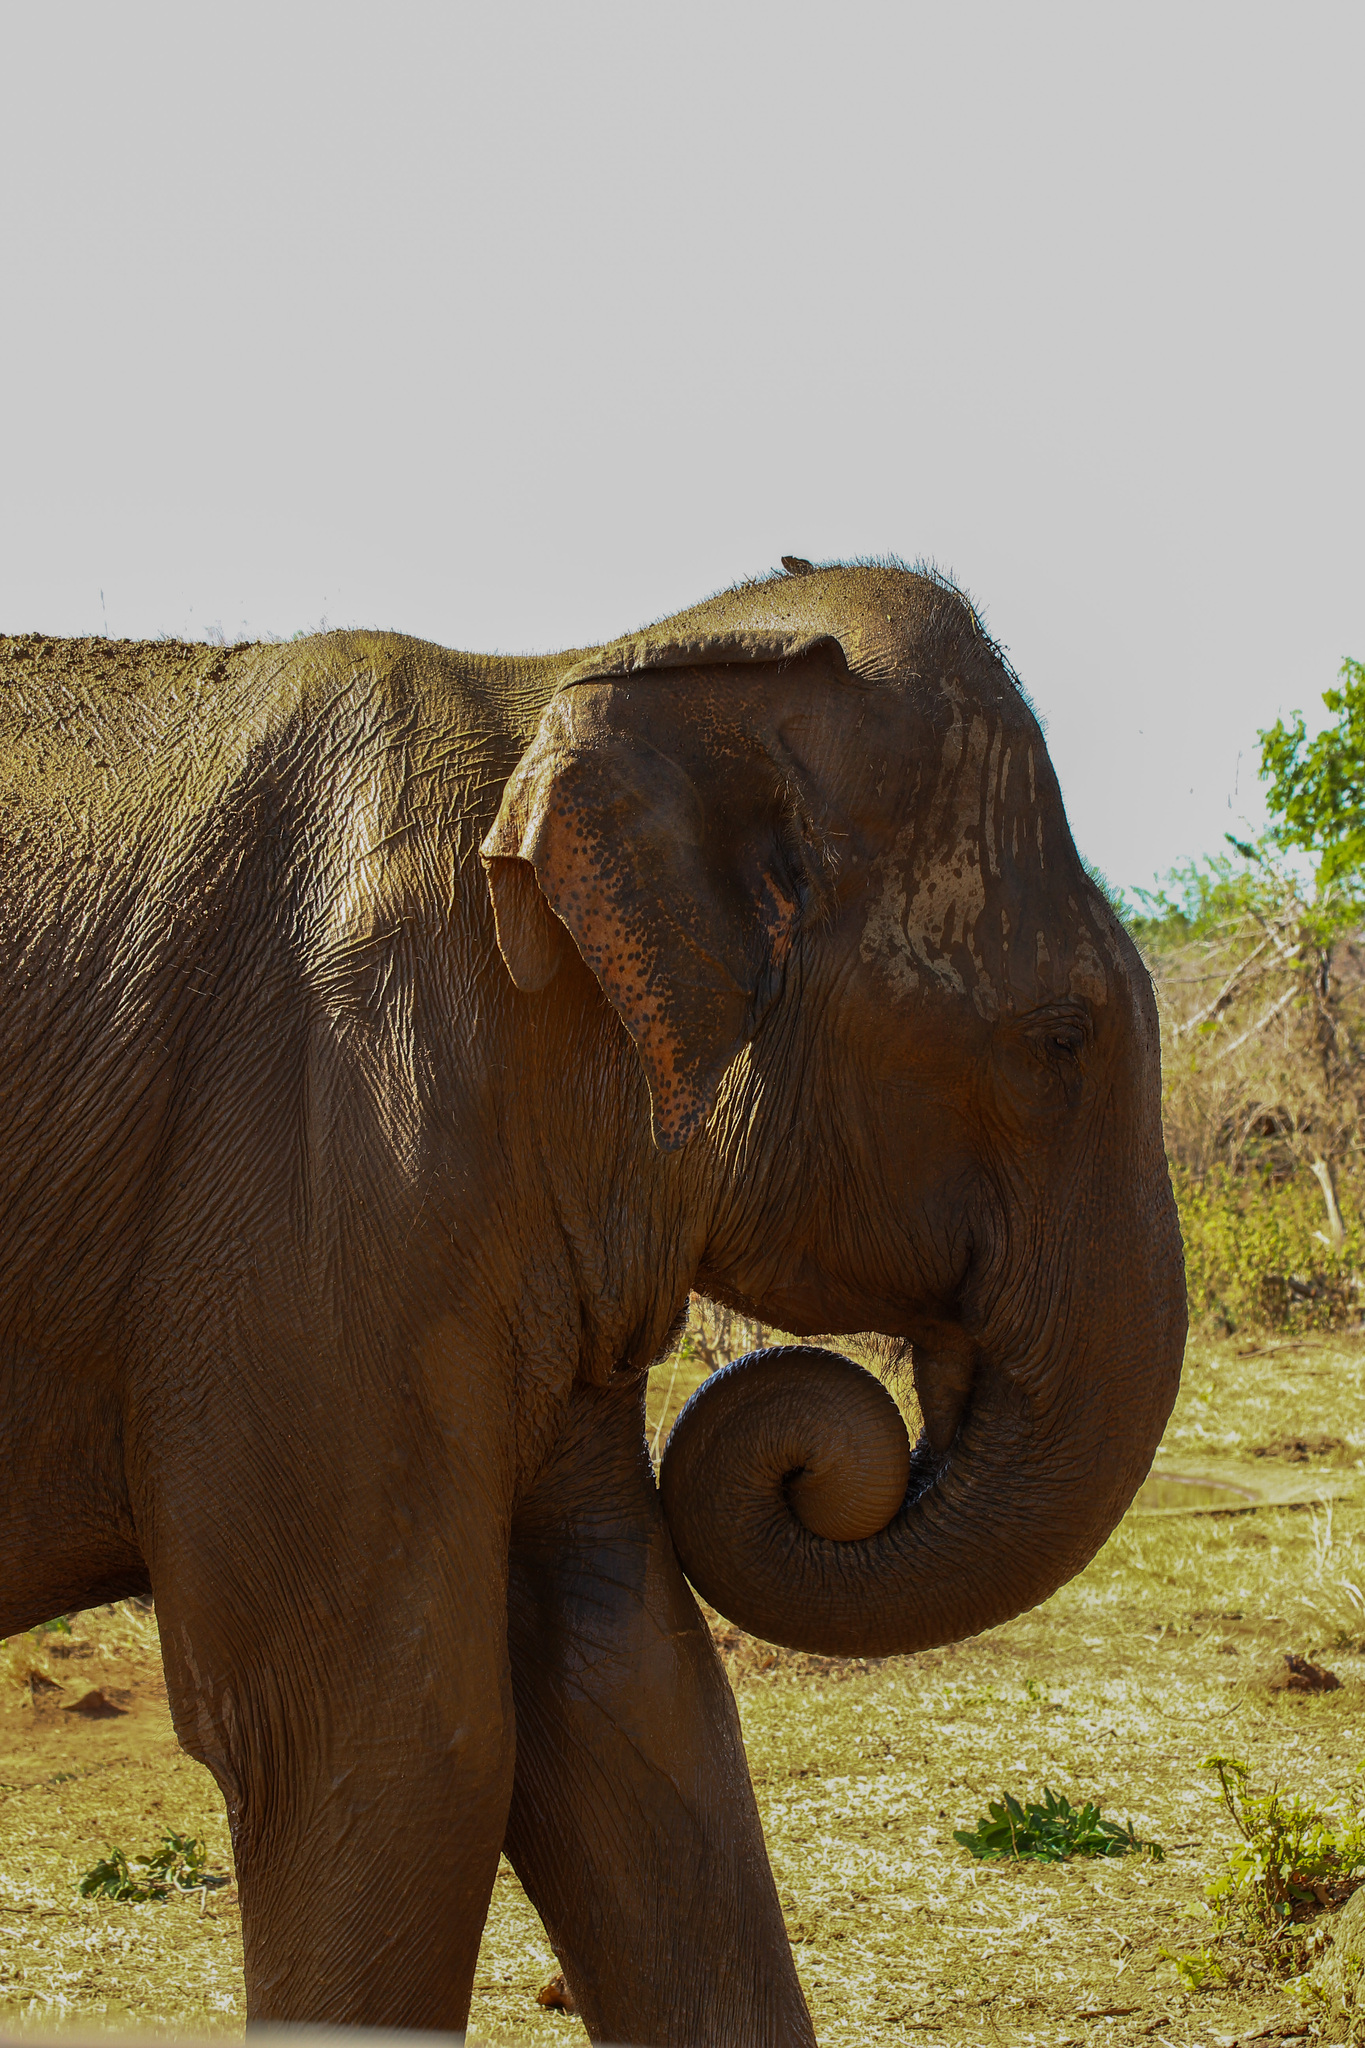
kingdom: Animalia
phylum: Chordata
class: Mammalia
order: Proboscidea
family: Elephantidae
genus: Elephas
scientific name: Elephas maximus
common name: Asian elephant
